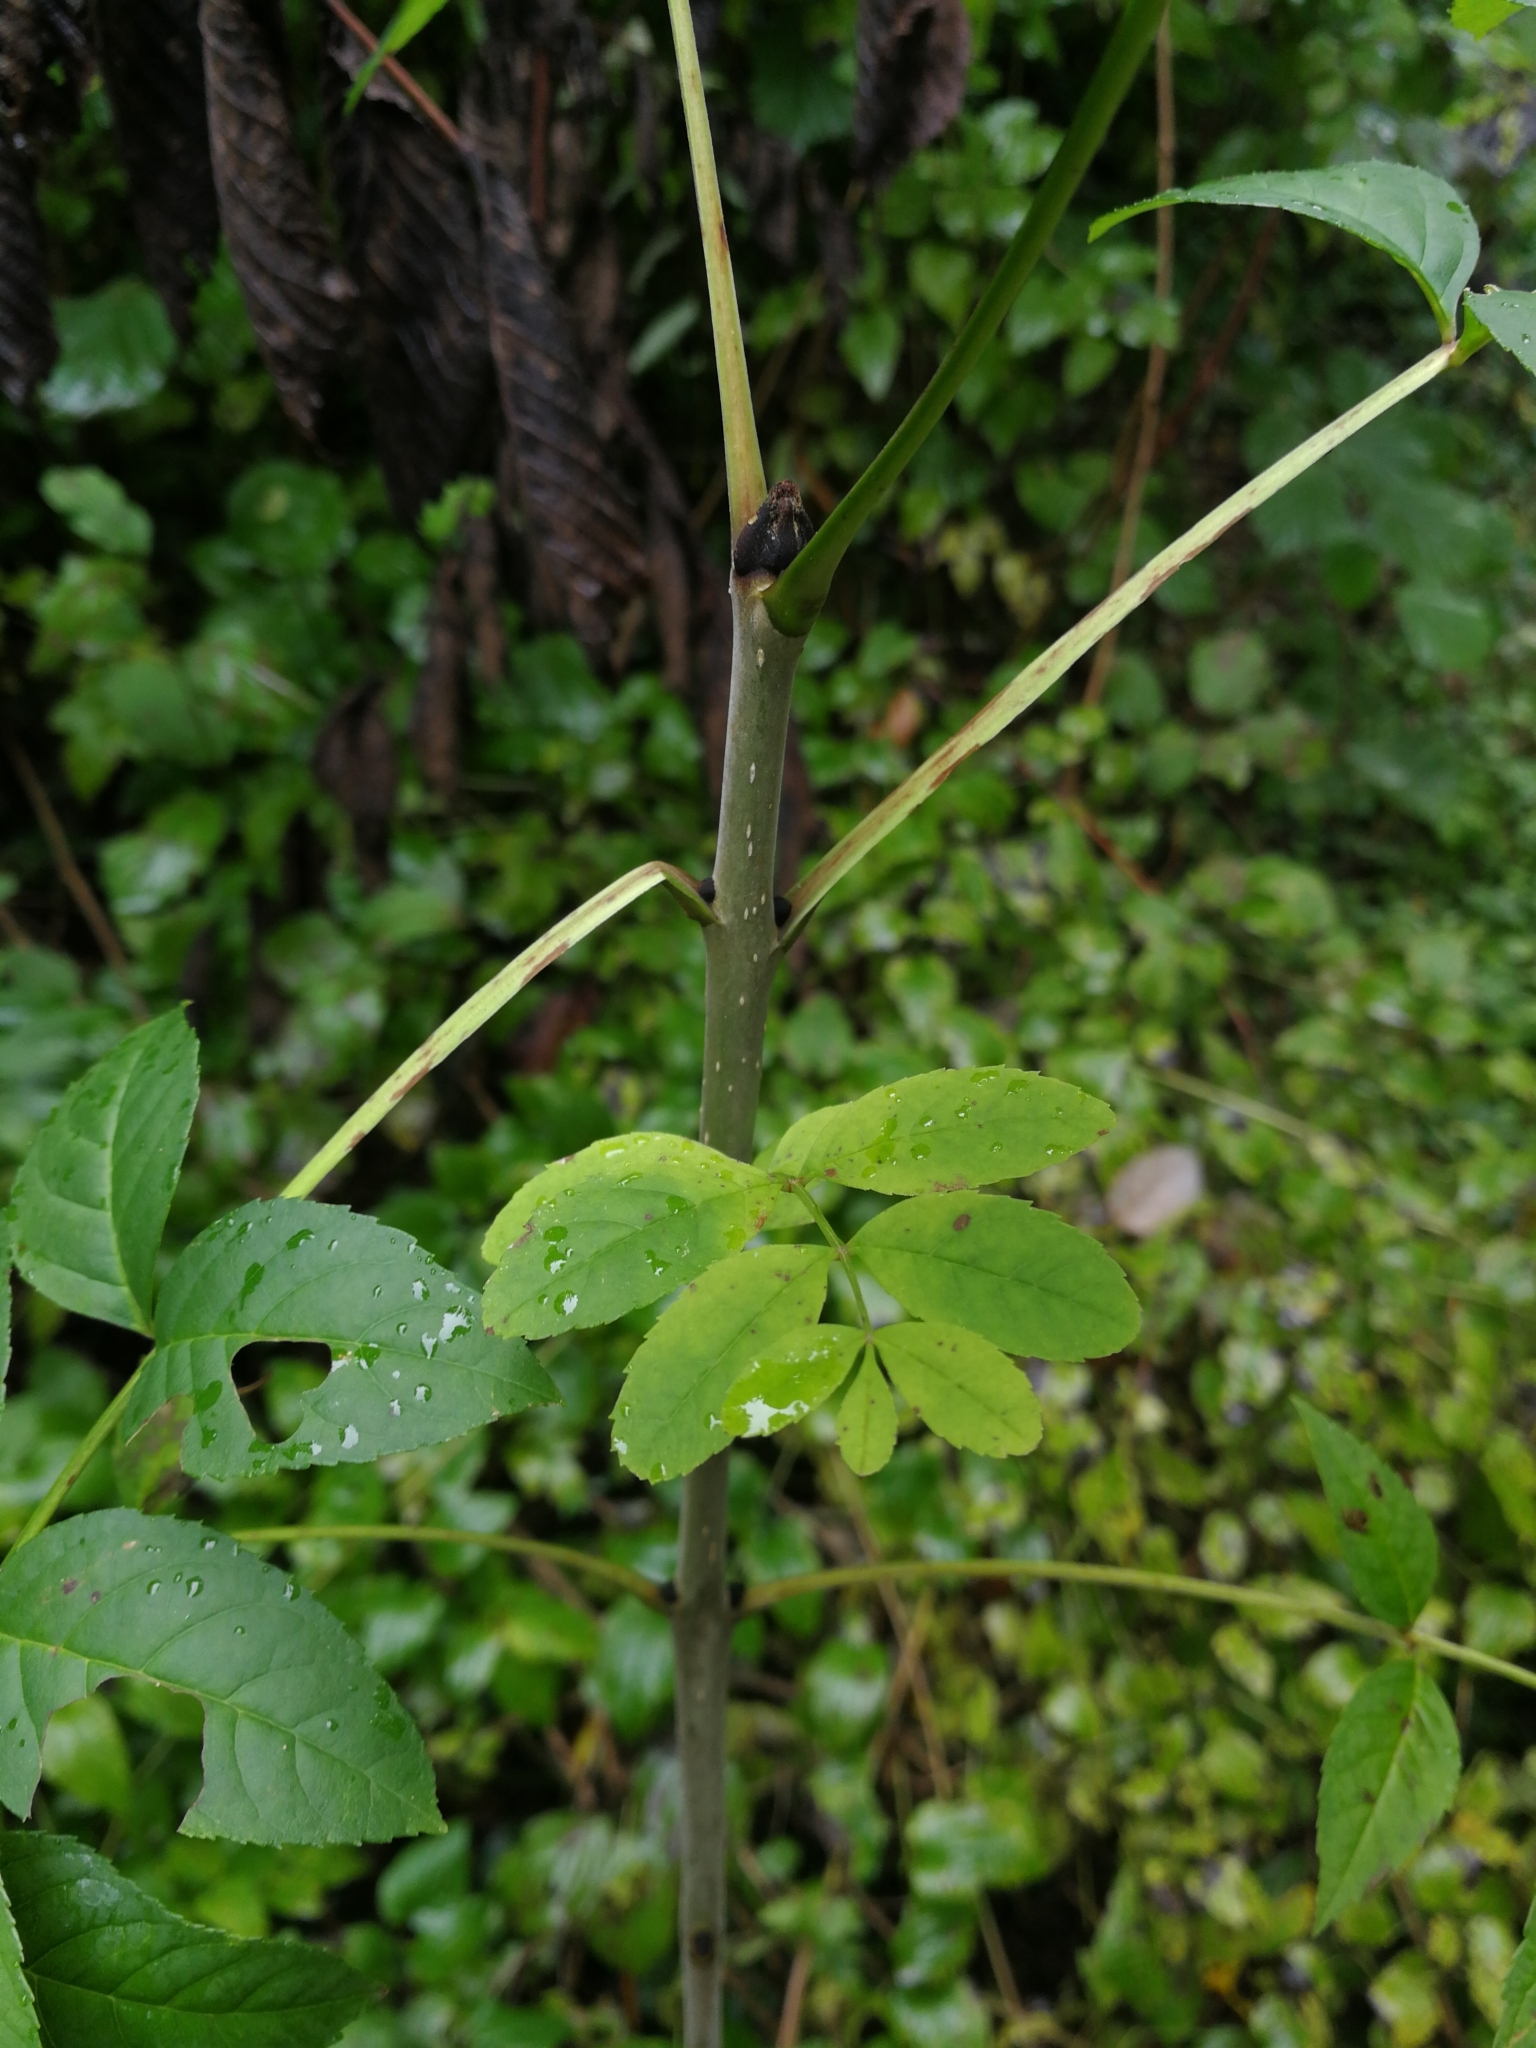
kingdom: Plantae
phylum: Tracheophyta
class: Magnoliopsida
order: Lamiales
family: Oleaceae
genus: Fraxinus
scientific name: Fraxinus excelsior
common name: European ash
